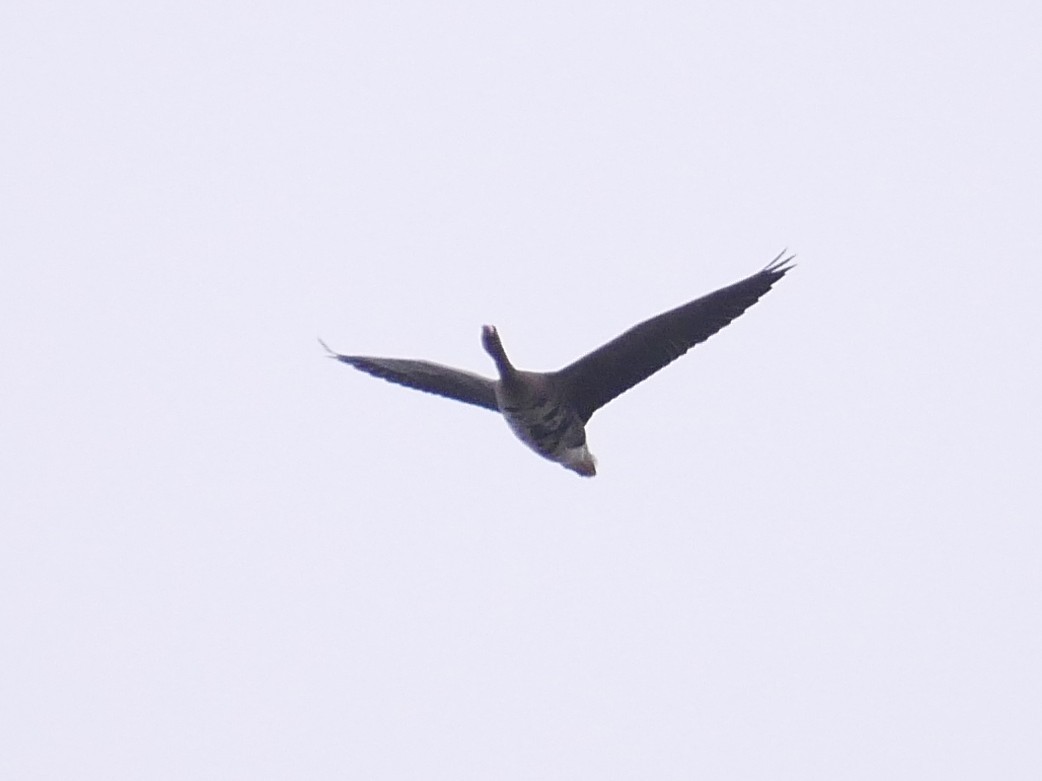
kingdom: Animalia
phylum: Chordata
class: Aves
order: Anseriformes
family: Anatidae
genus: Anser
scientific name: Anser albifrons
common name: Greater white-fronted goose
